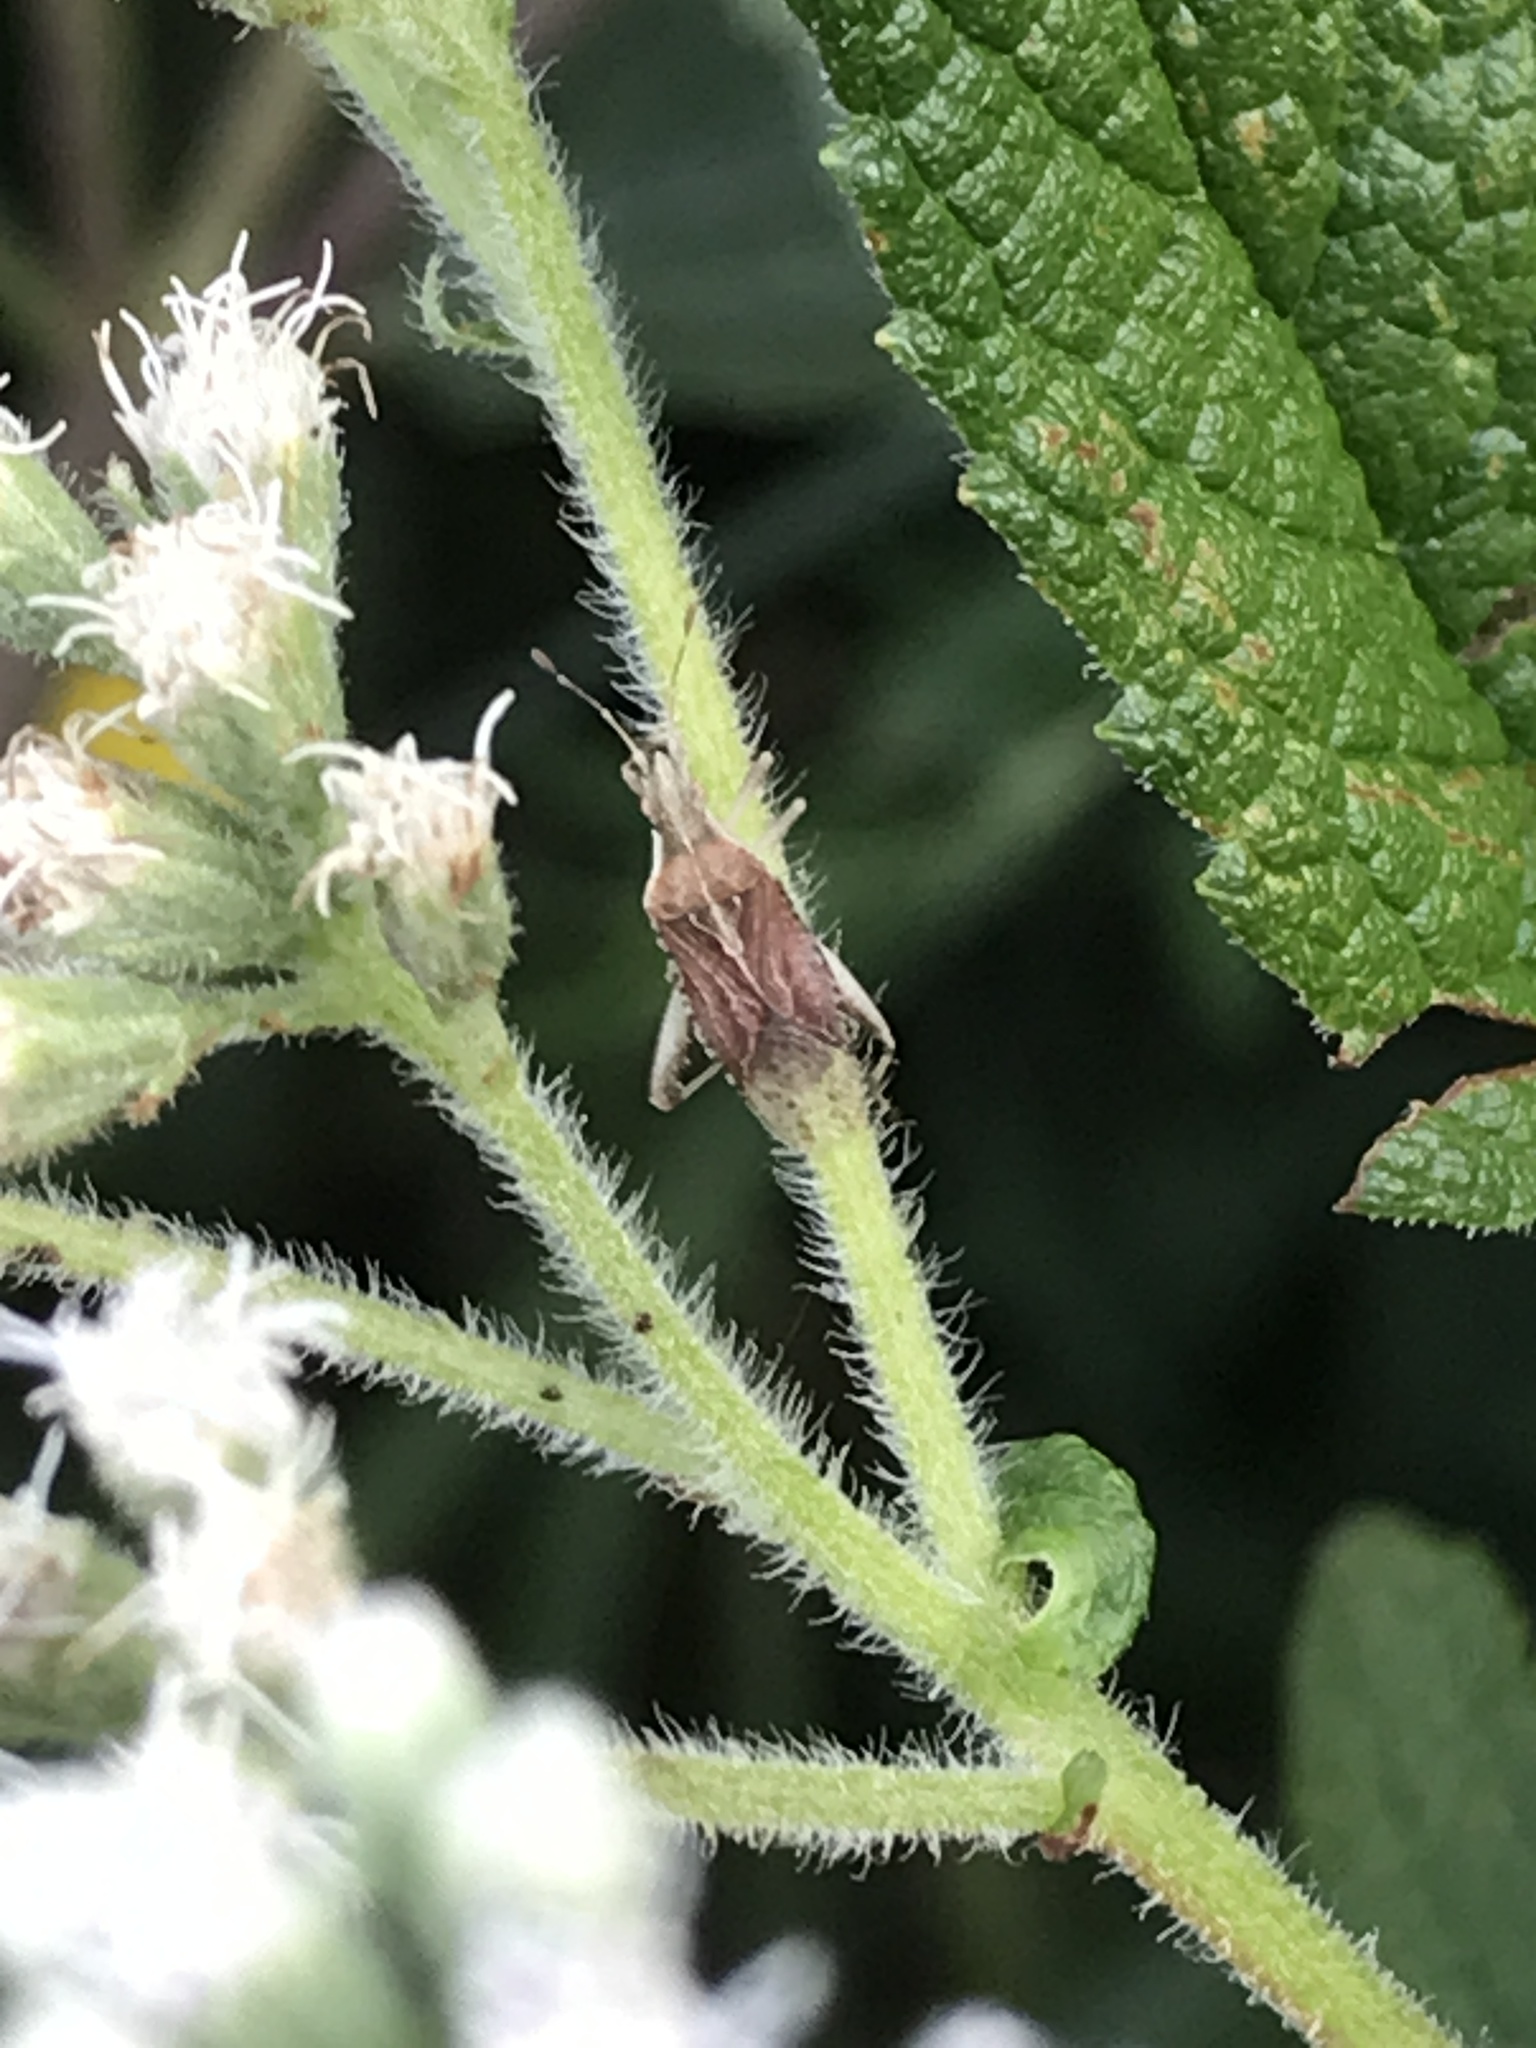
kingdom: Animalia
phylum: Arthropoda
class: Insecta
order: Hemiptera
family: Rhopalidae
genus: Harmostes
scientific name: Harmostes fraterculus
